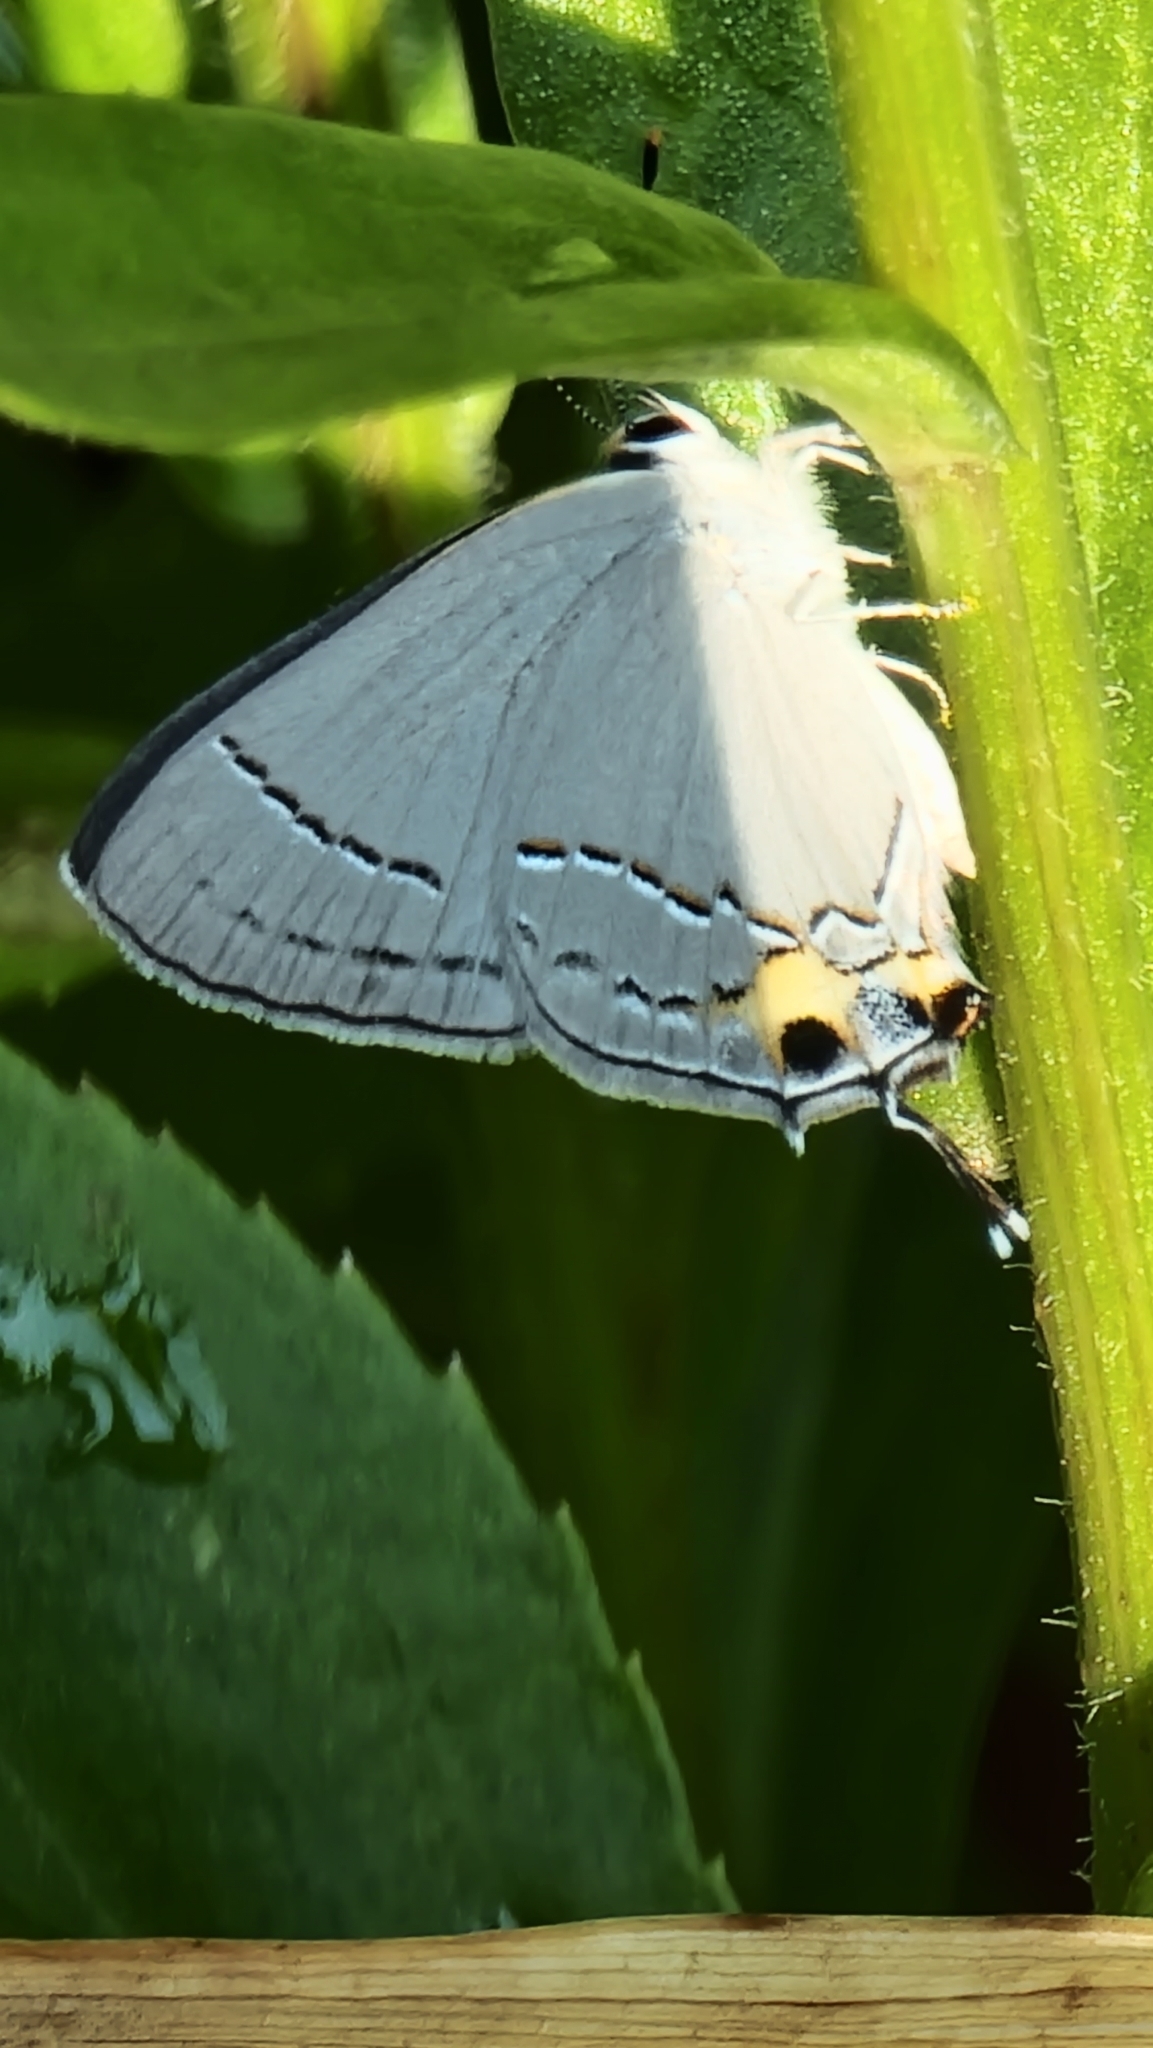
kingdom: Animalia
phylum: Arthropoda
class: Insecta
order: Lepidoptera
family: Lycaenidae
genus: Strymon
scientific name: Strymon melinus
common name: Gray hairstreak
